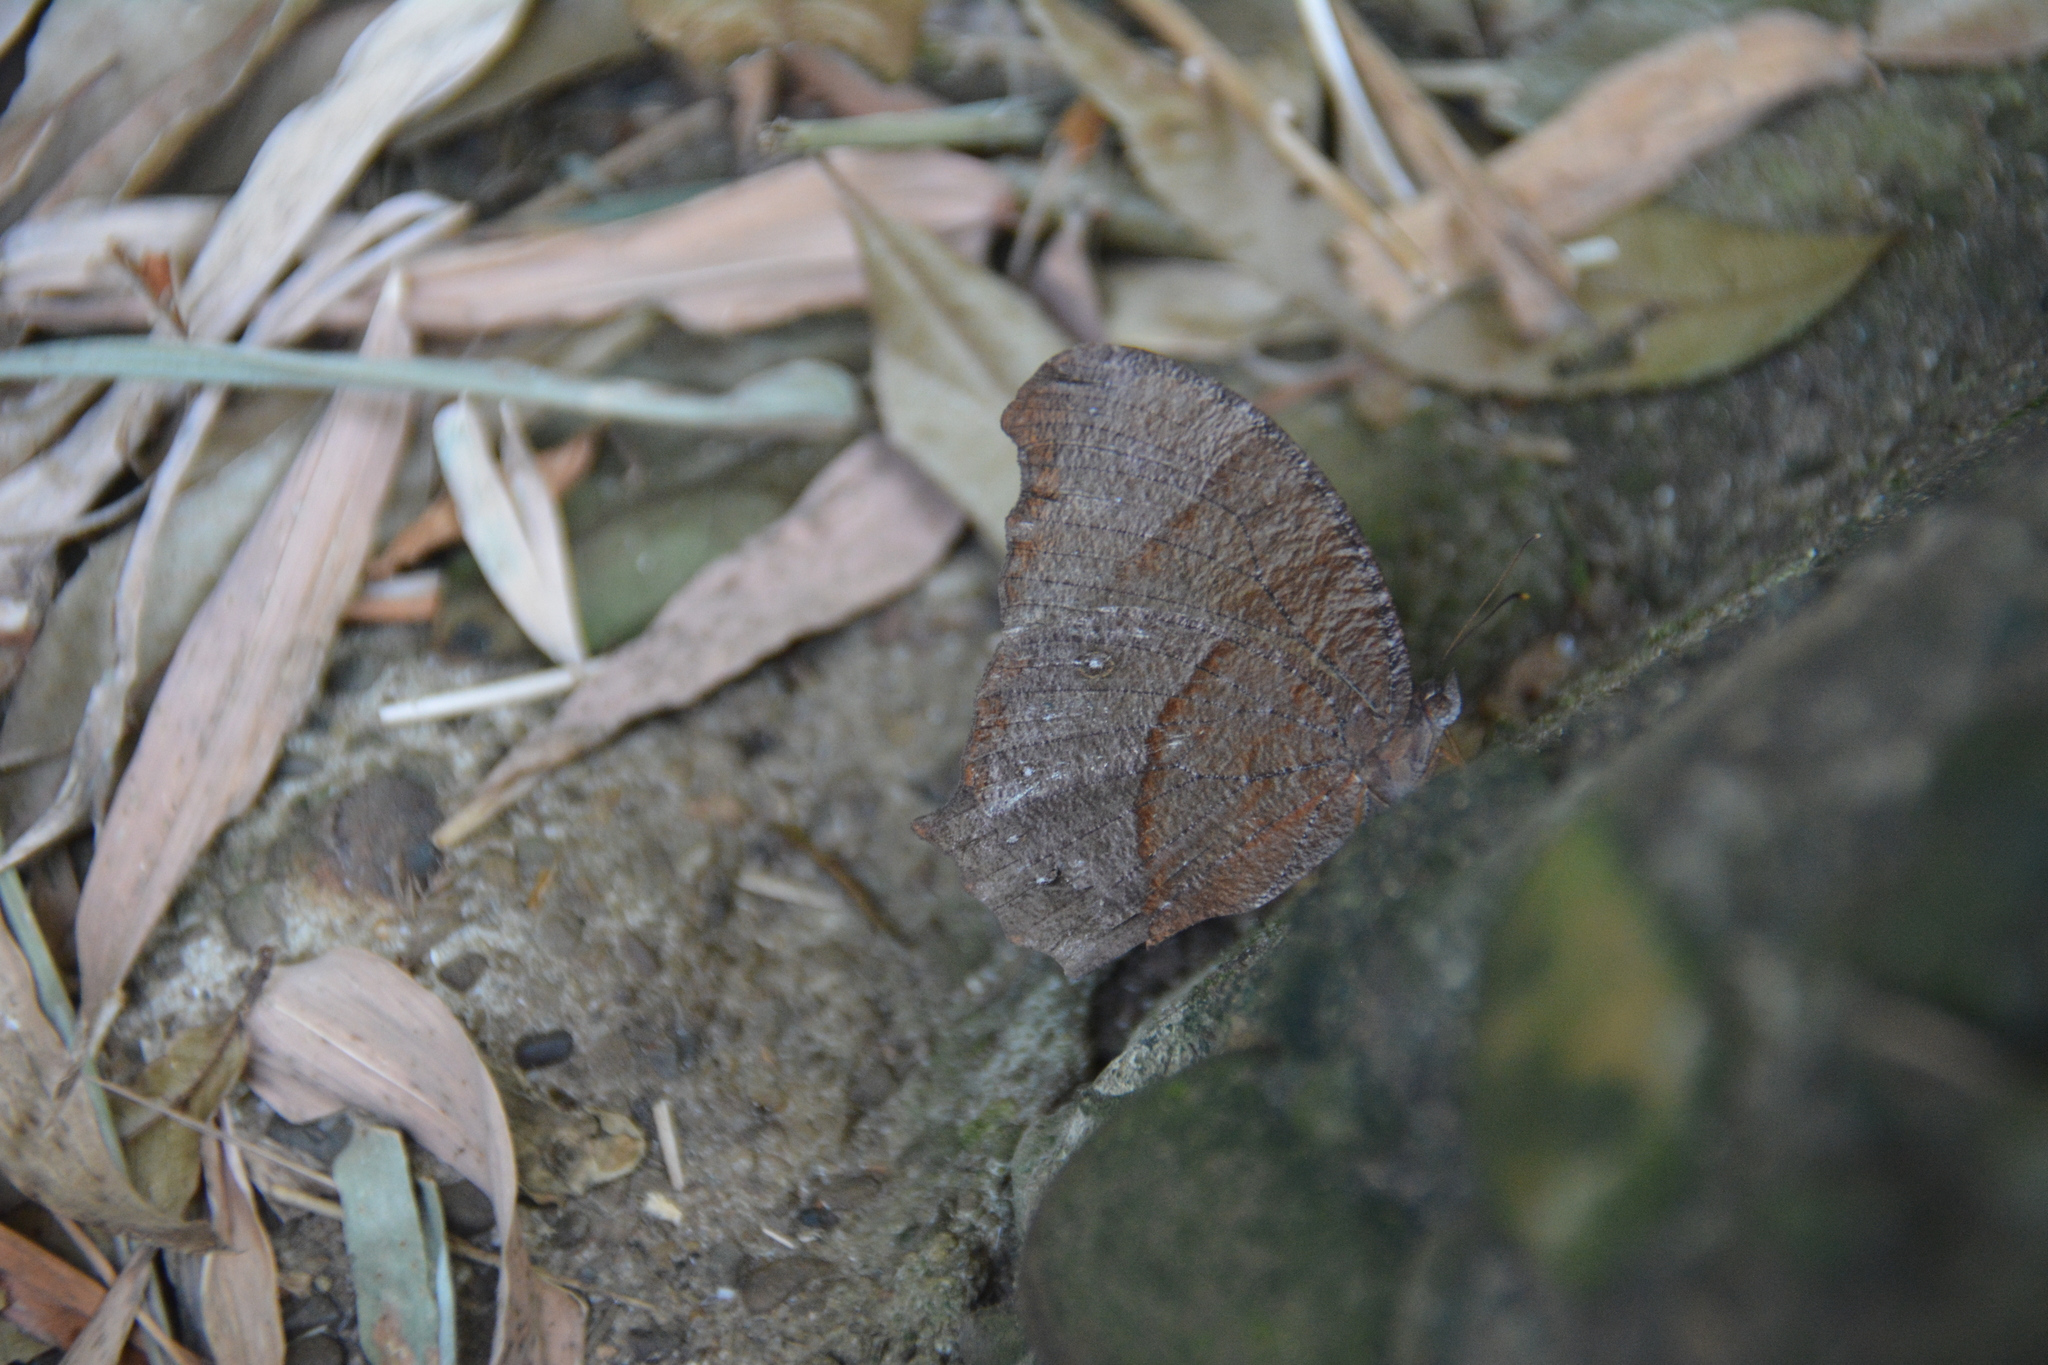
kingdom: Animalia
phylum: Arthropoda
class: Insecta
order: Lepidoptera
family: Nymphalidae
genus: Melanitis
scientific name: Melanitis phedima
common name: Dark evening brown
